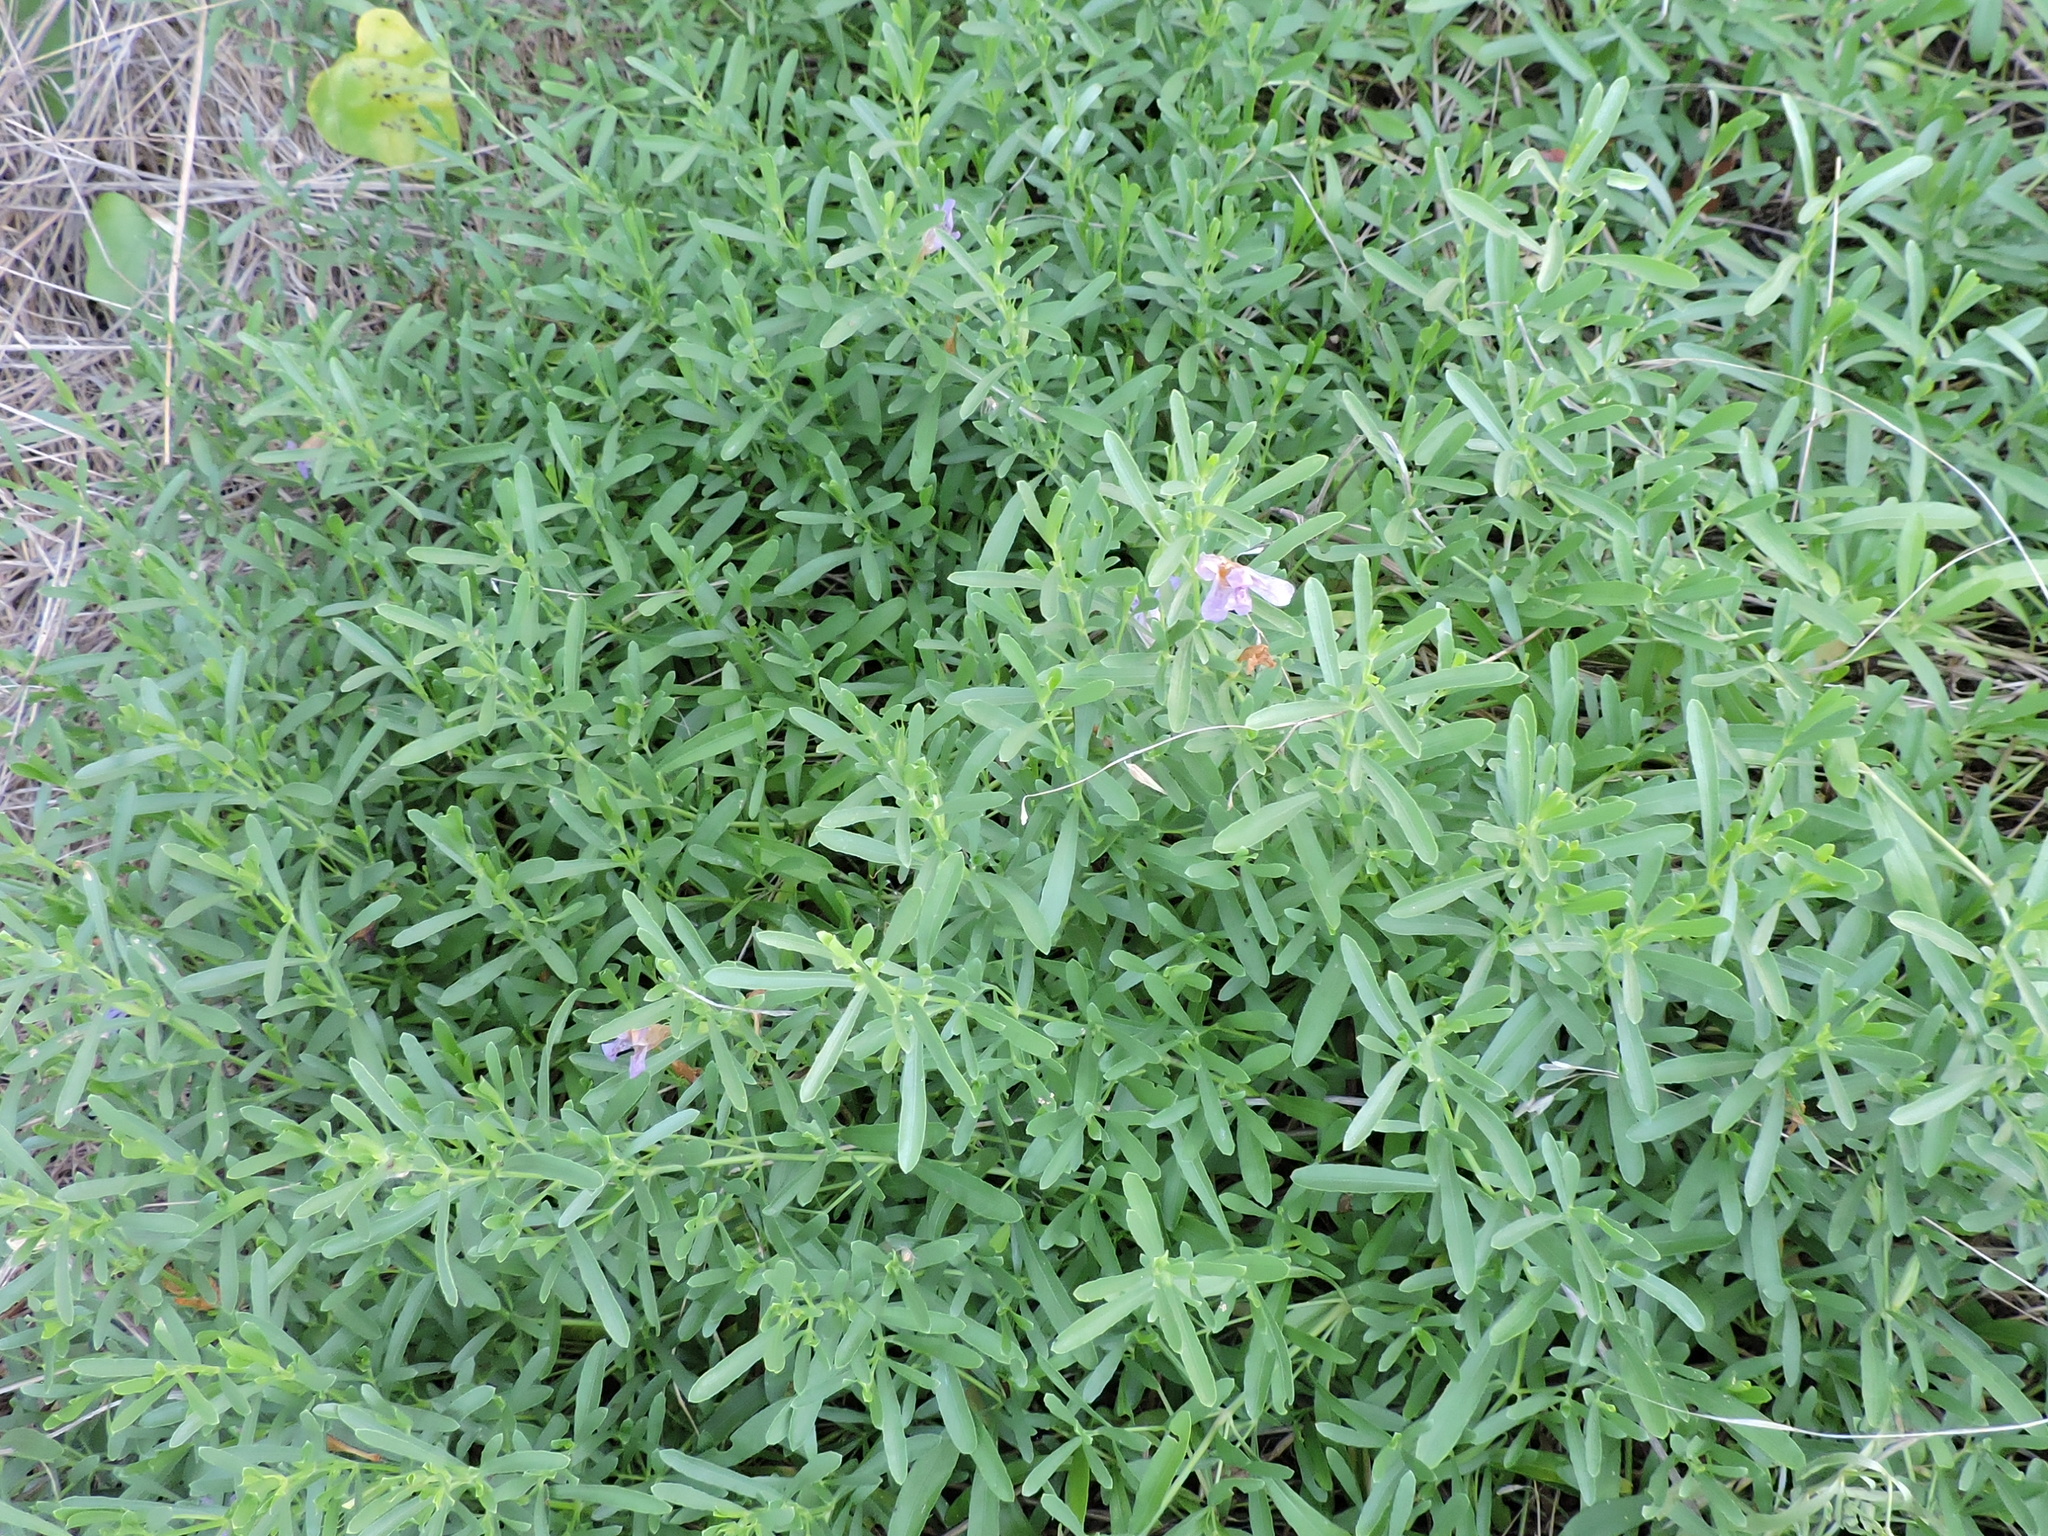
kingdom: Plantae
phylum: Tracheophyta
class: Magnoliopsida
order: Lamiales
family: Acanthaceae
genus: Dyschoriste
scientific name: Dyschoriste linearis
